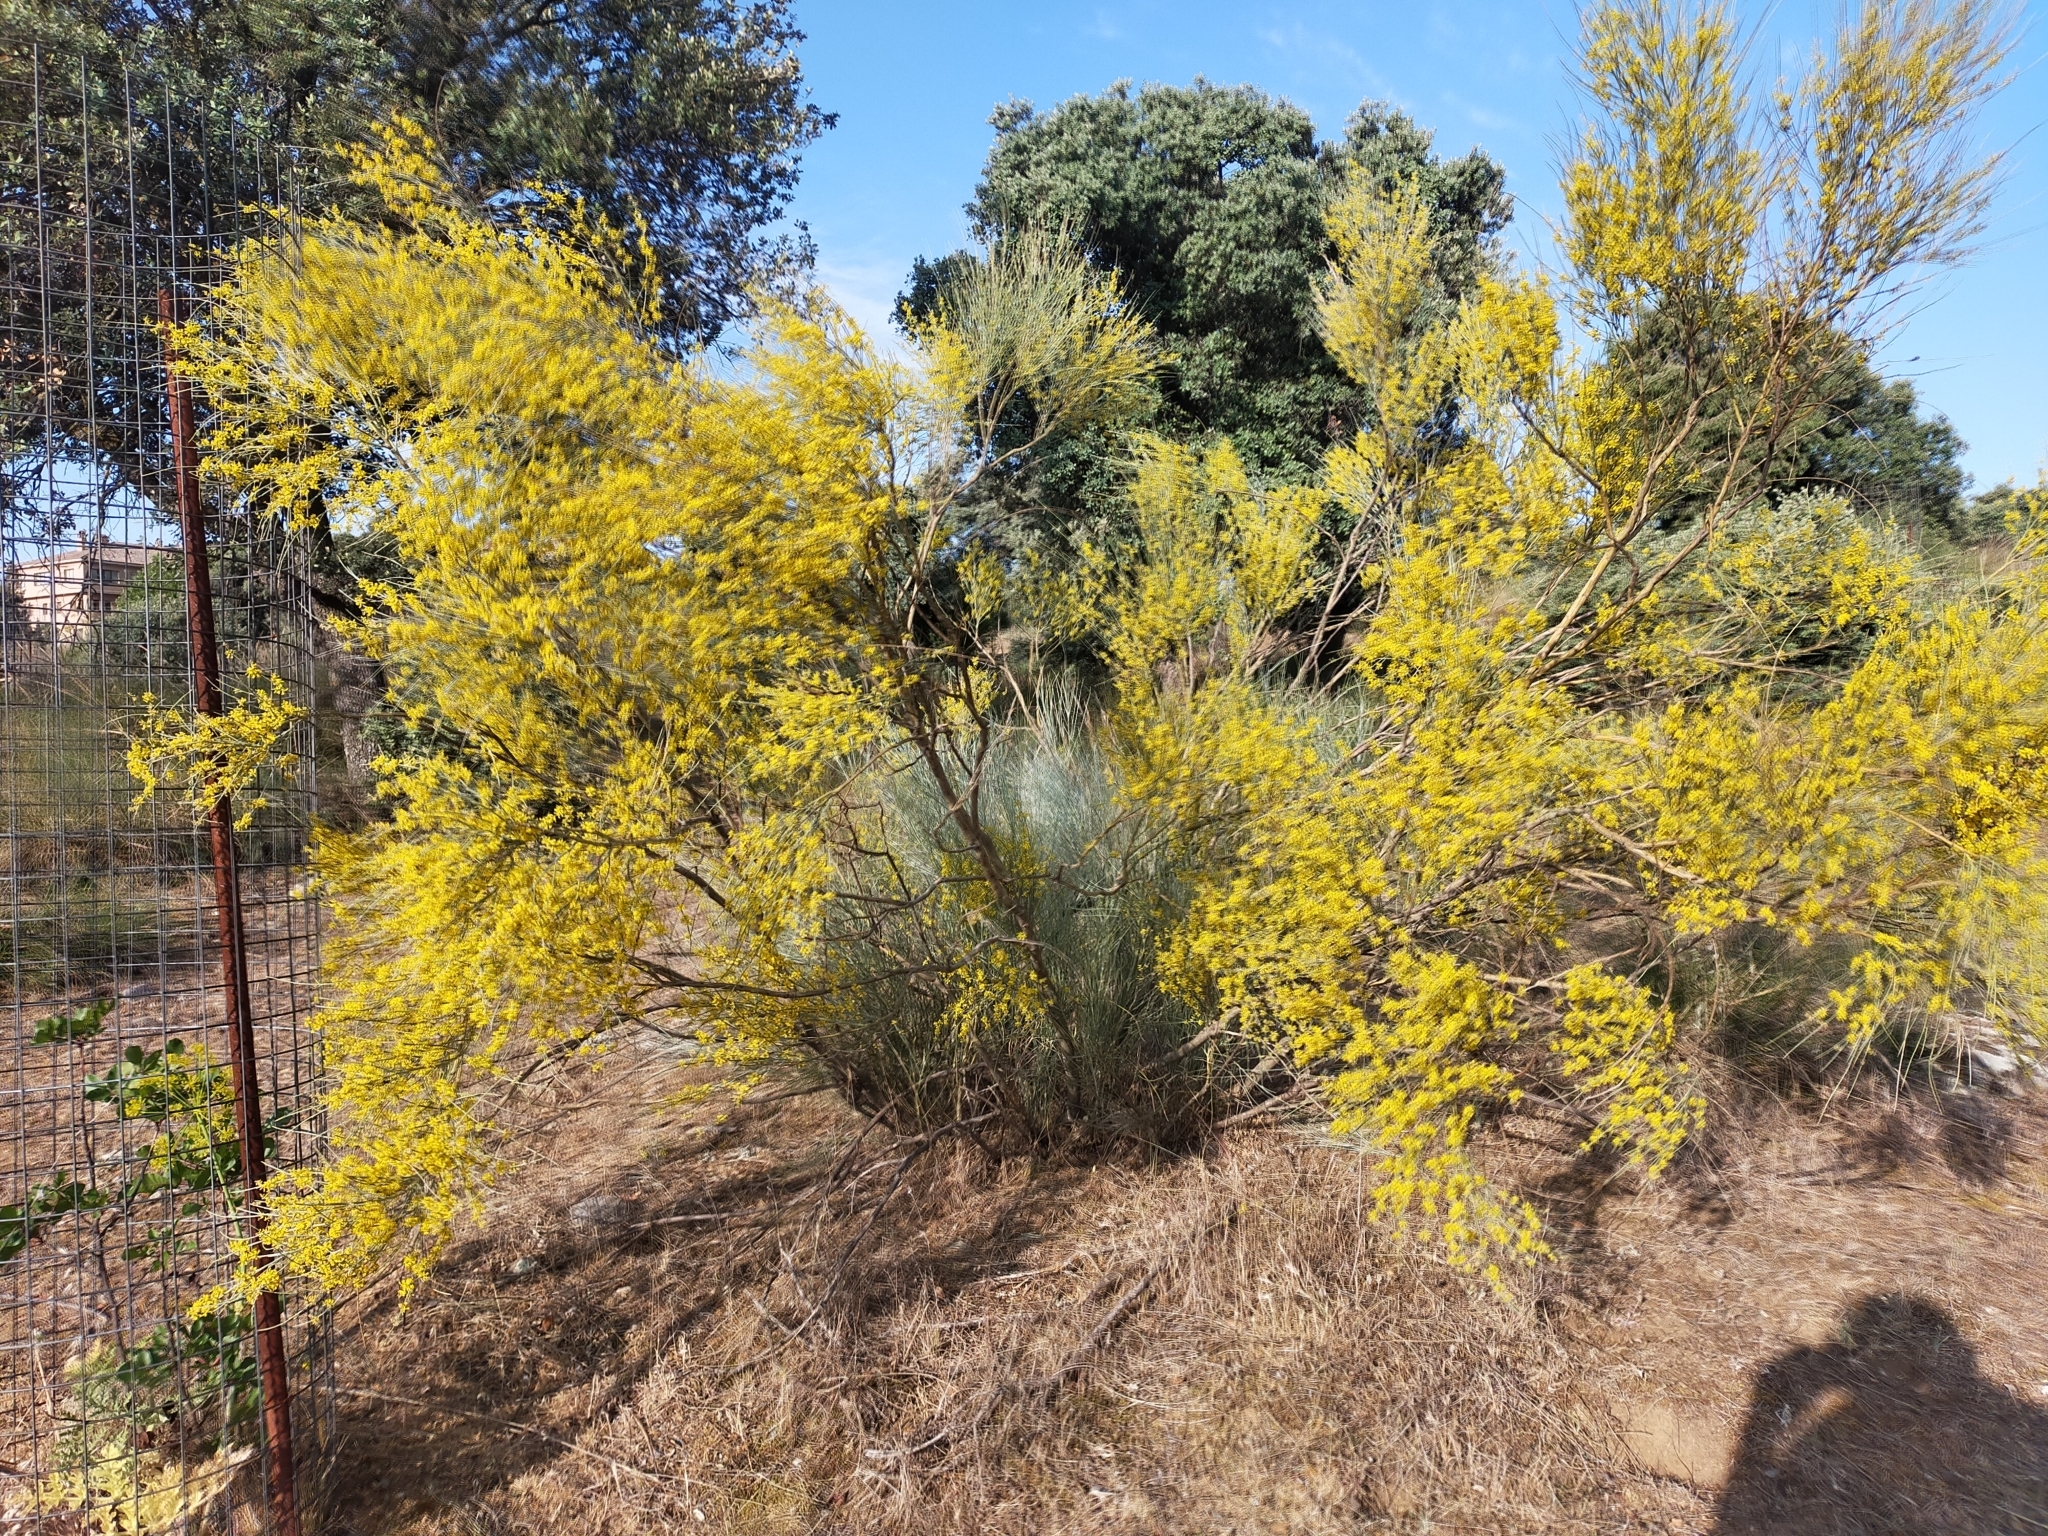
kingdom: Plantae
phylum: Tracheophyta
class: Magnoliopsida
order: Fabales
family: Fabaceae
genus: Retama
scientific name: Retama sphaerocarpa
